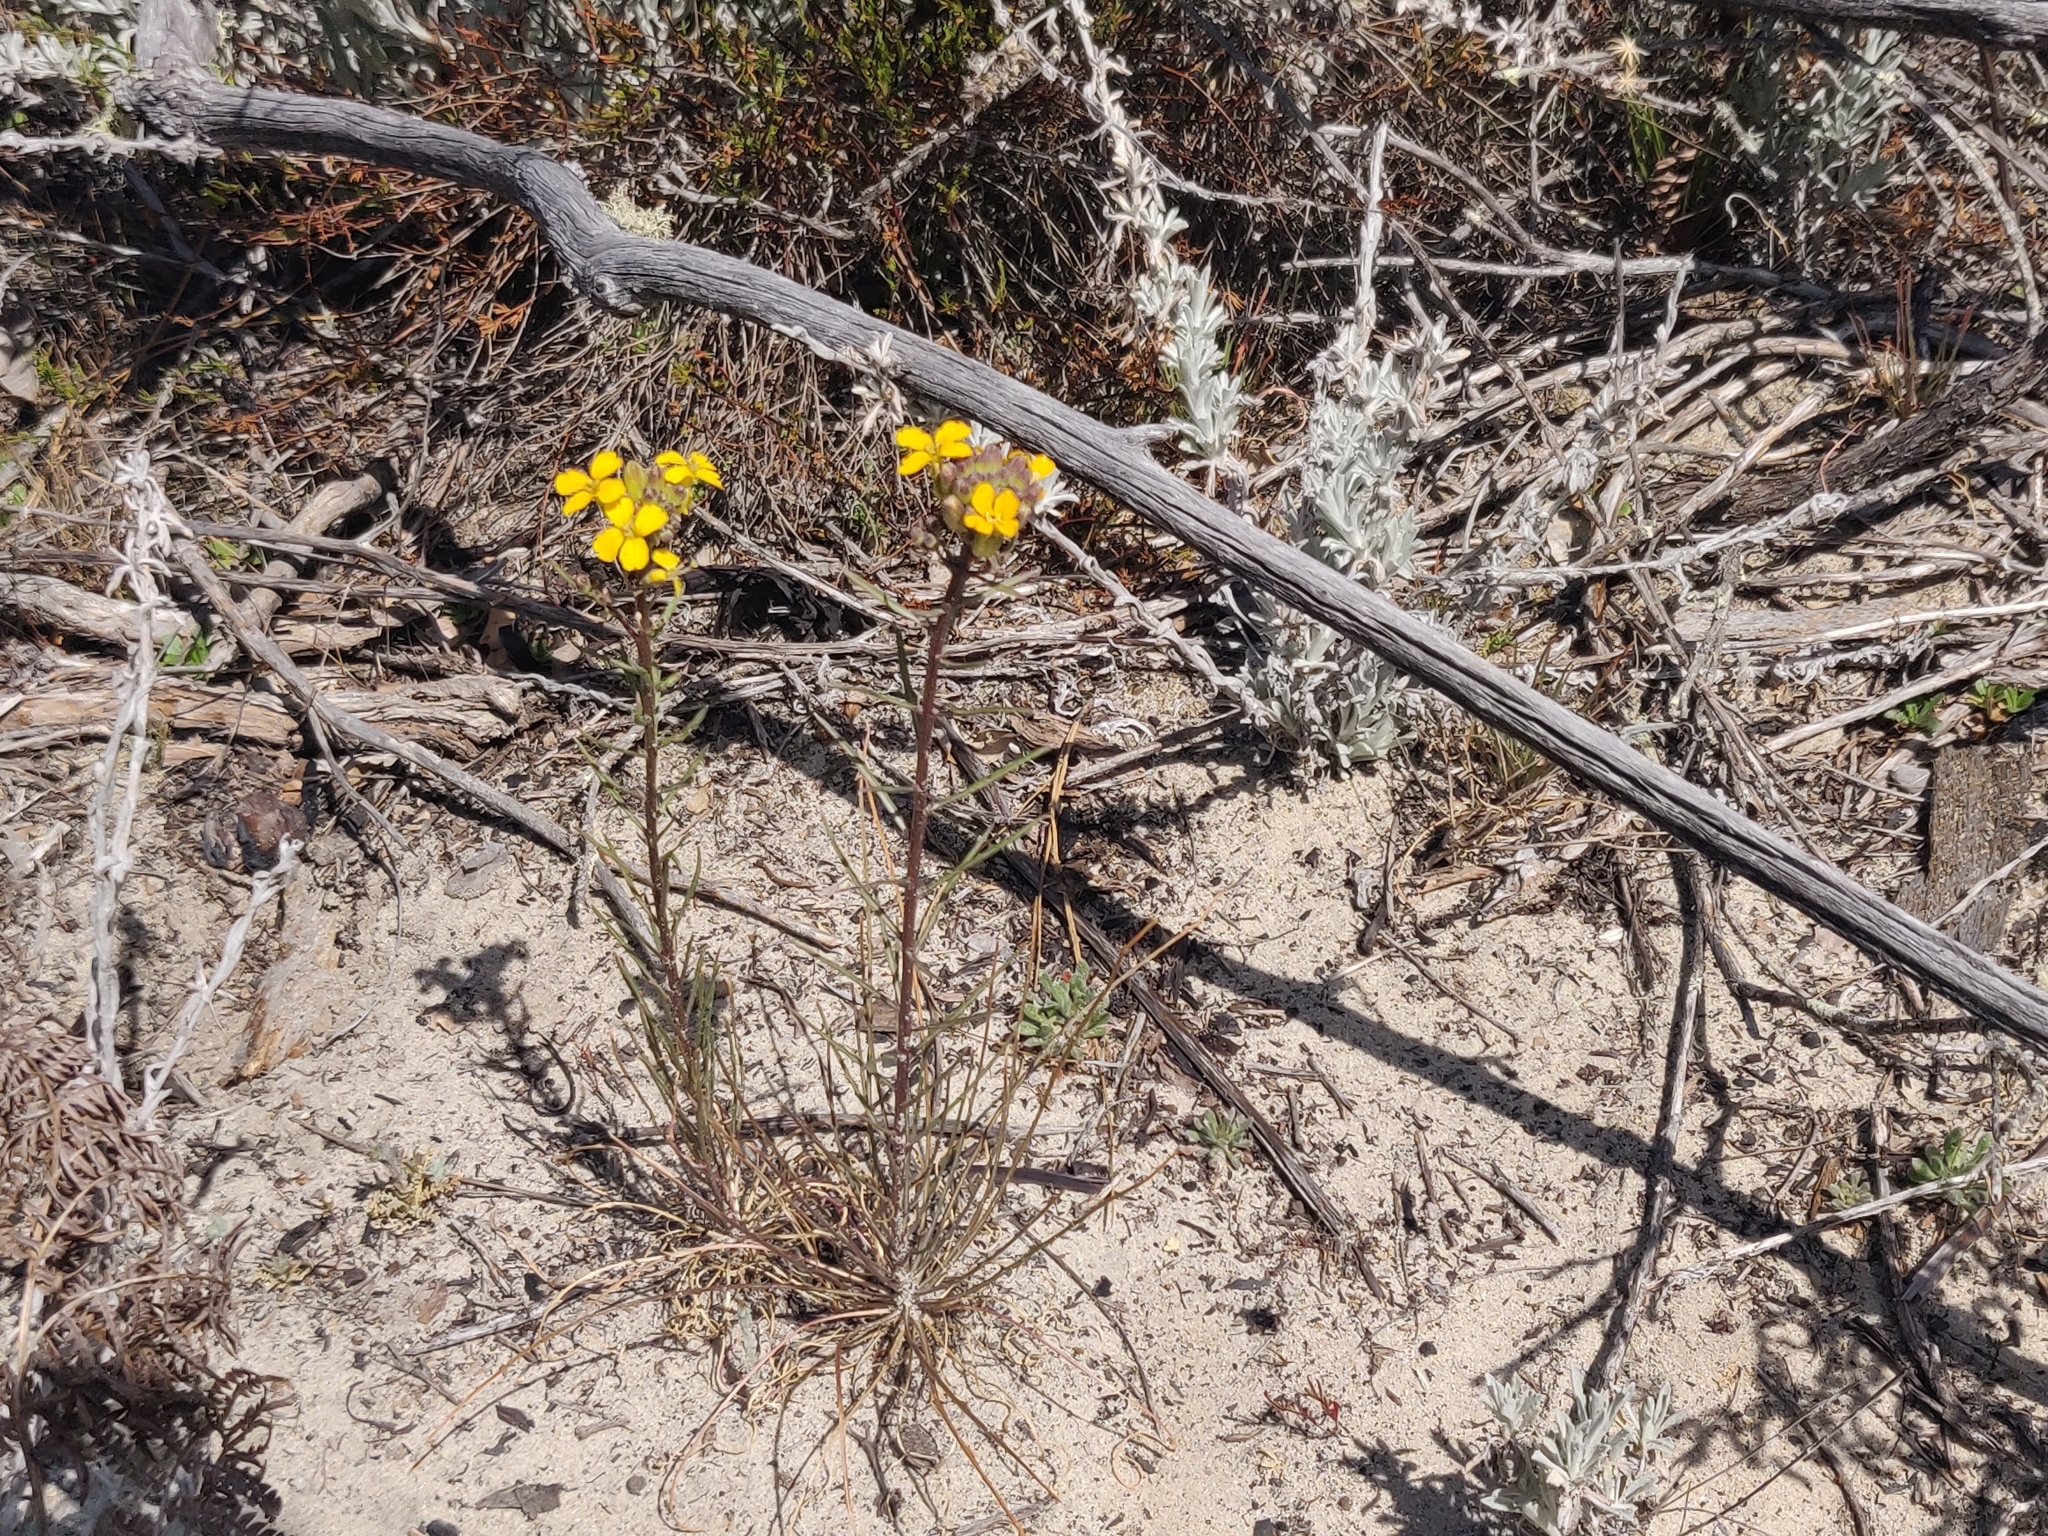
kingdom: Plantae
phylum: Tracheophyta
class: Magnoliopsida
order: Brassicales
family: Brassicaceae
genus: Erysimum
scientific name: Erysimum teretifolium
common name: Ben lomond wallflower
